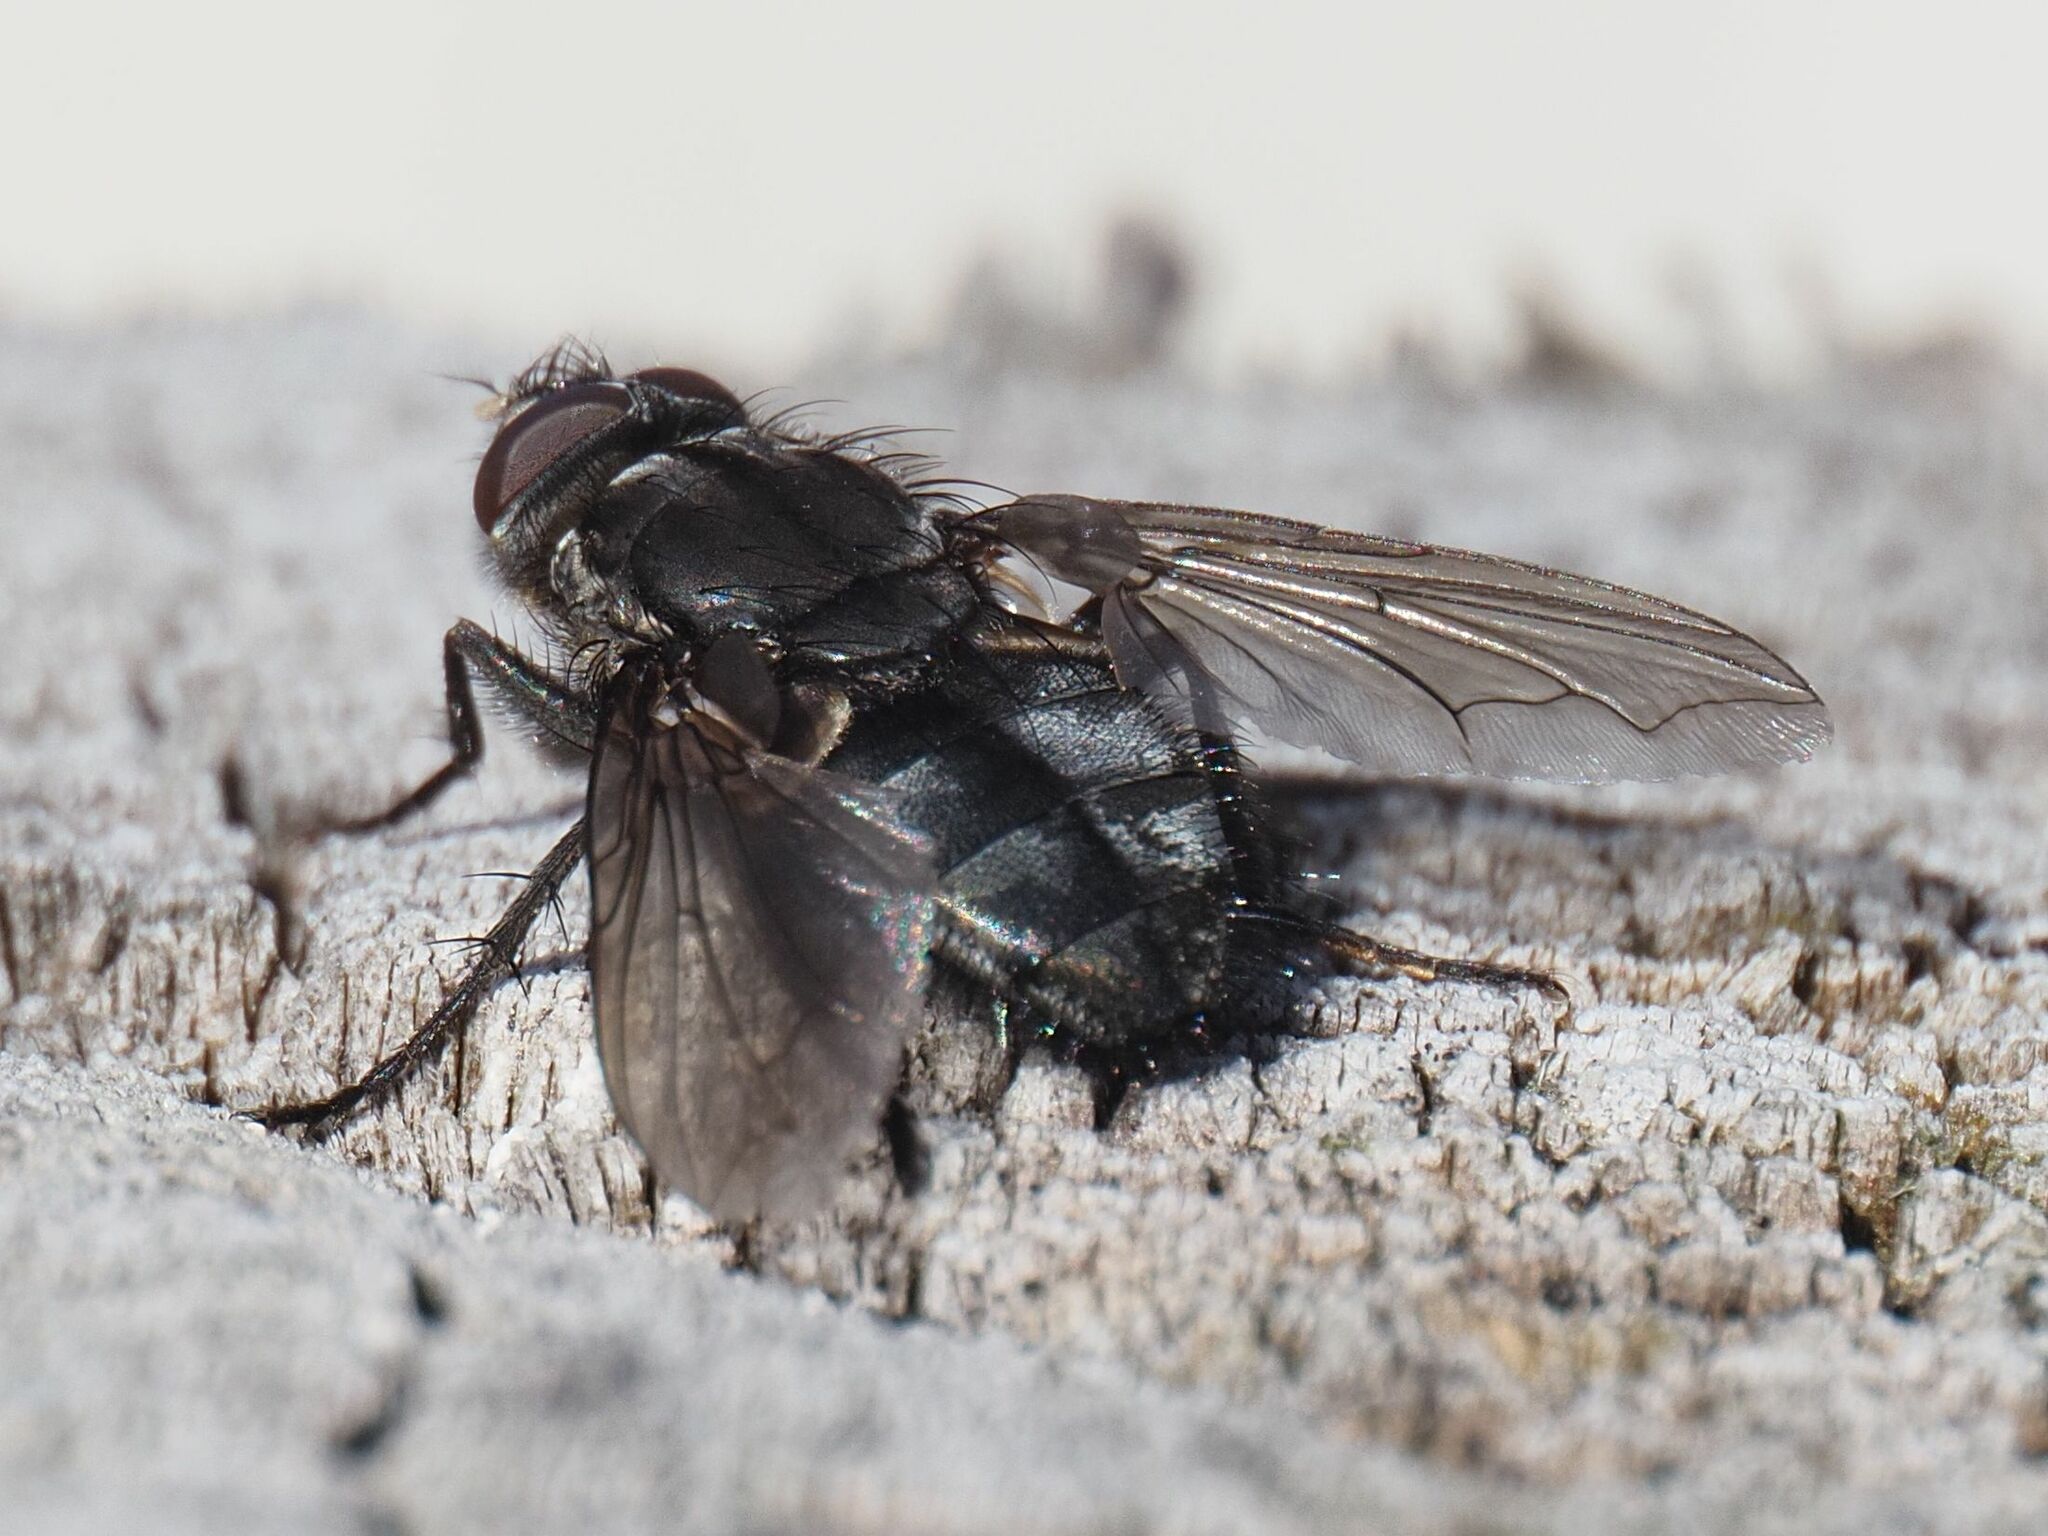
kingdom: Animalia
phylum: Arthropoda
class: Insecta
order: Diptera
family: Polleniidae
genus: Pollenia
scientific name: Pollenia vagabunda
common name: Vagabund cluster fly
